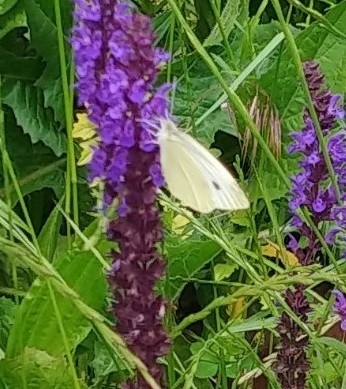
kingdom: Animalia
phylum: Arthropoda
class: Insecta
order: Lepidoptera
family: Pieridae
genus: Pieris
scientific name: Pieris rapae
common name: Small white
